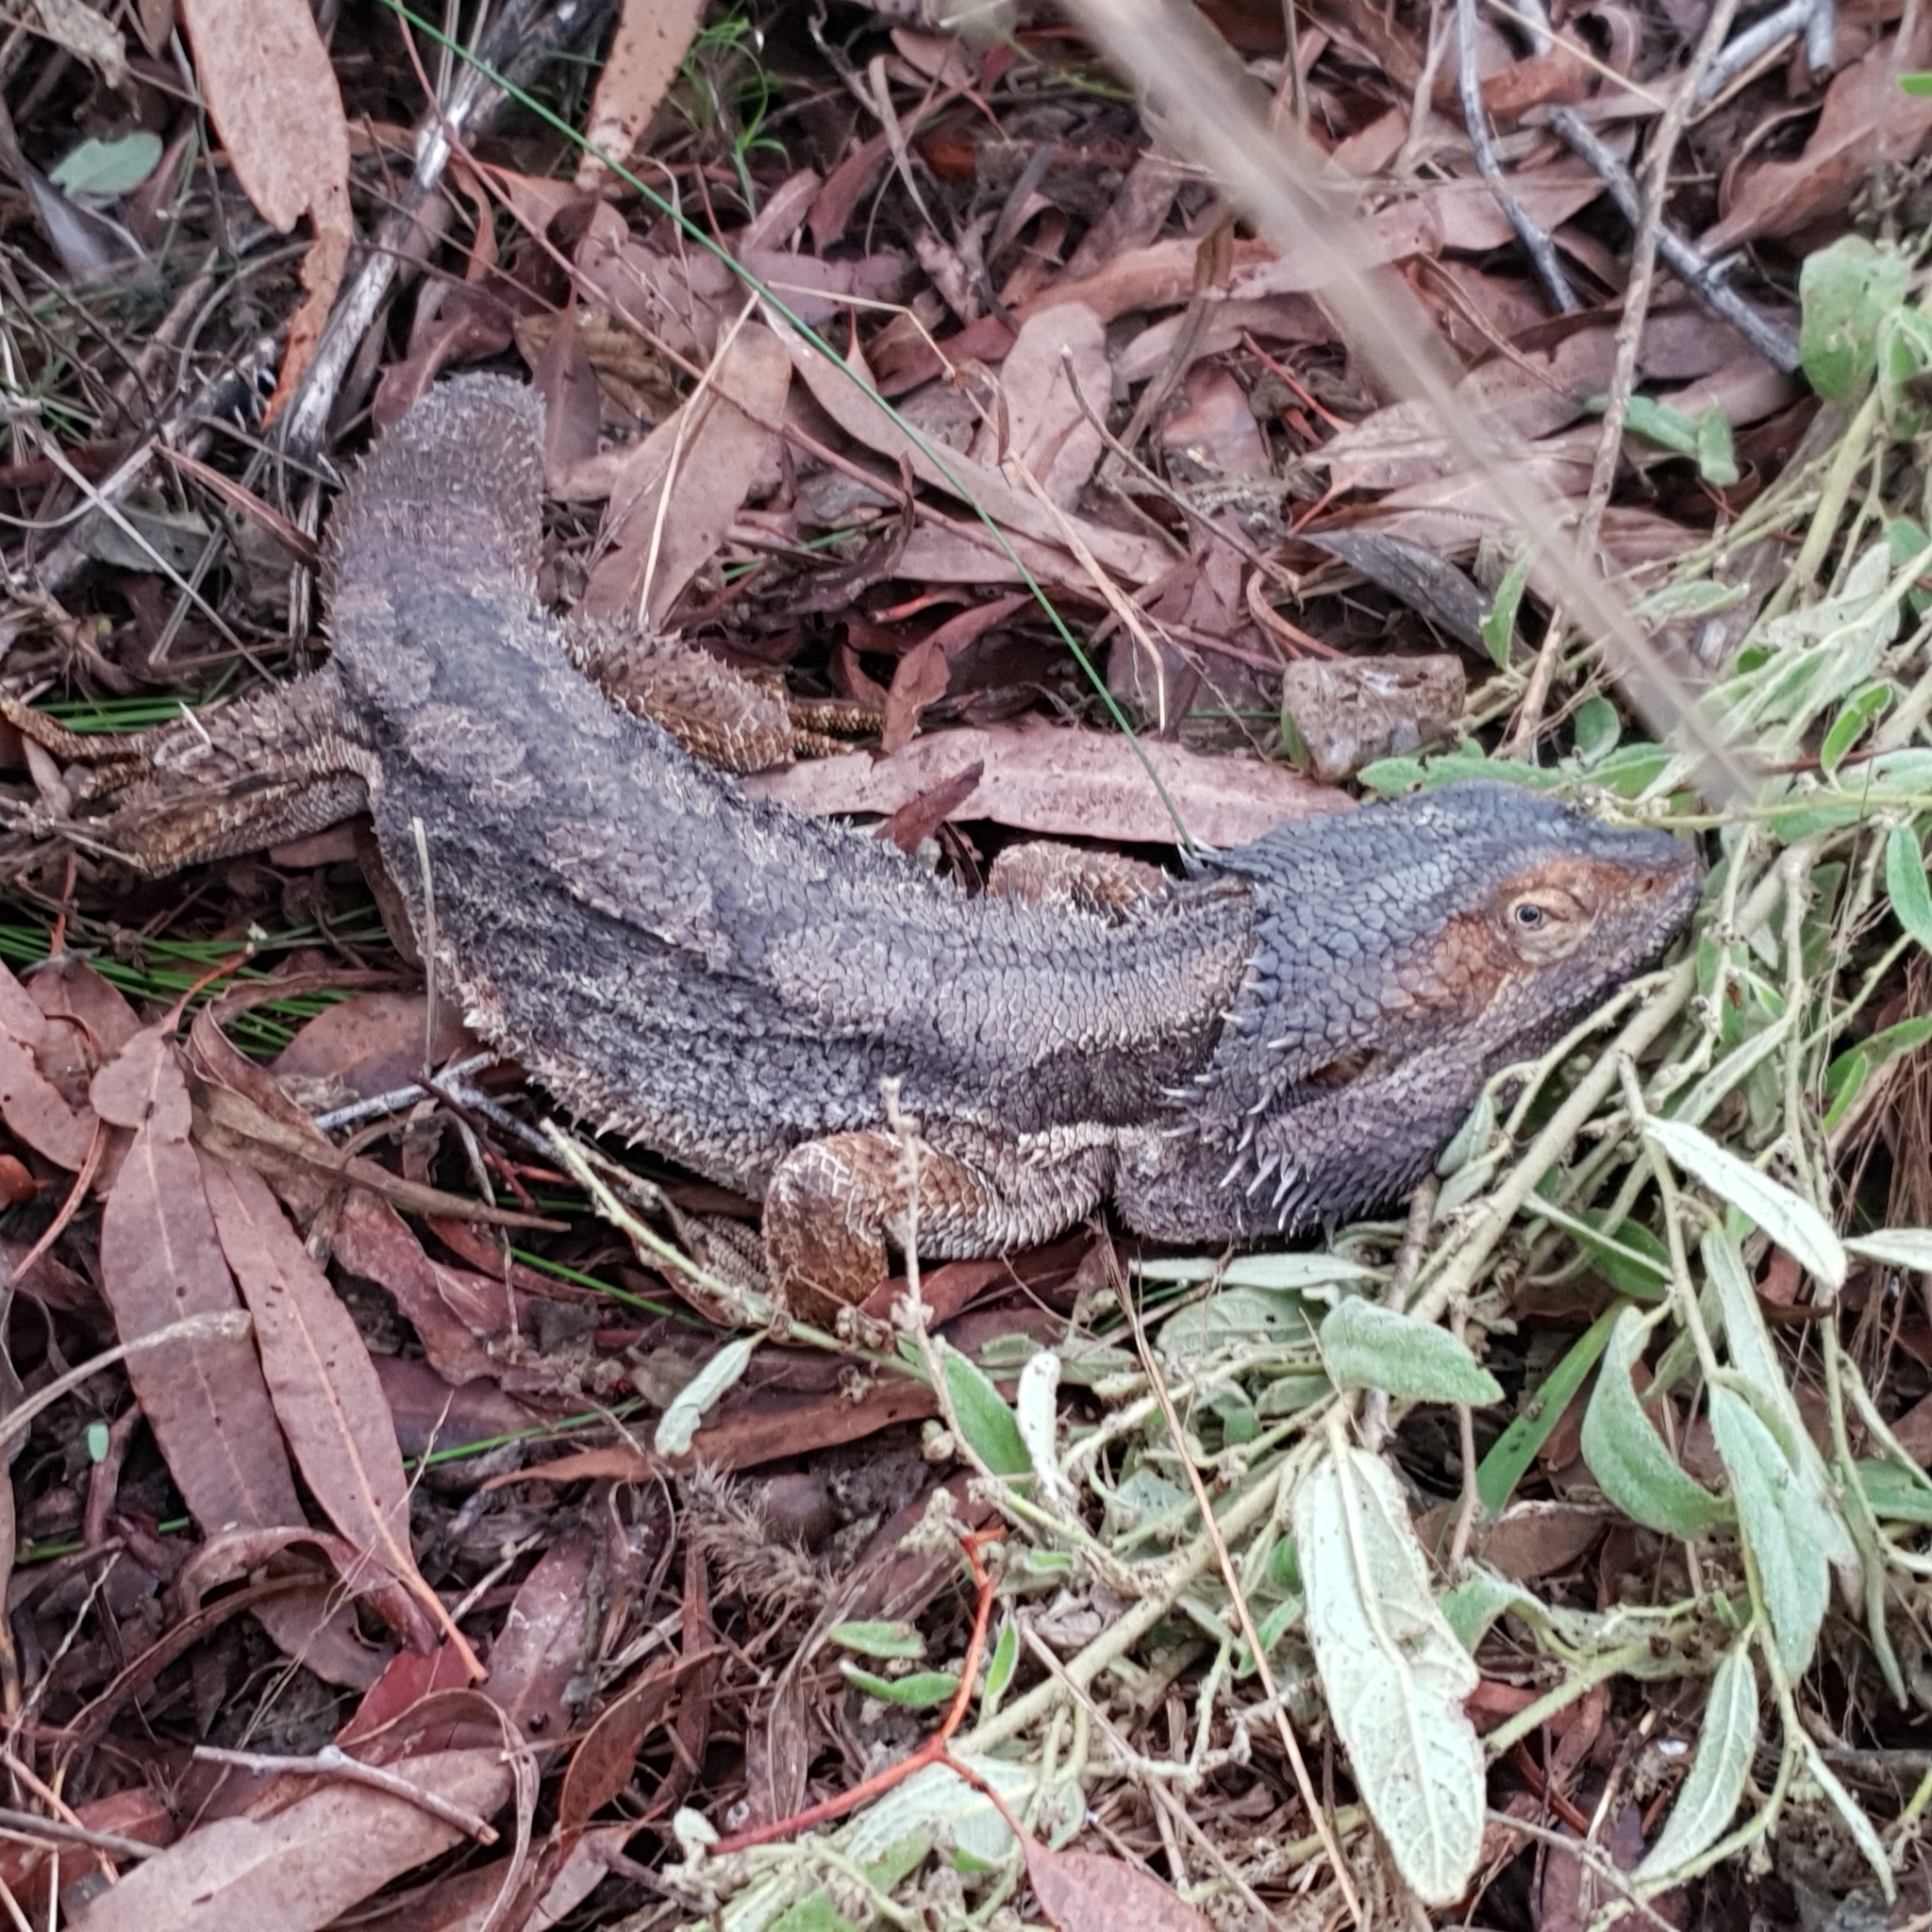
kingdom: Animalia
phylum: Chordata
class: Squamata
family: Agamidae
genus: Pogona
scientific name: Pogona barbata
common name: Bearded dragon
